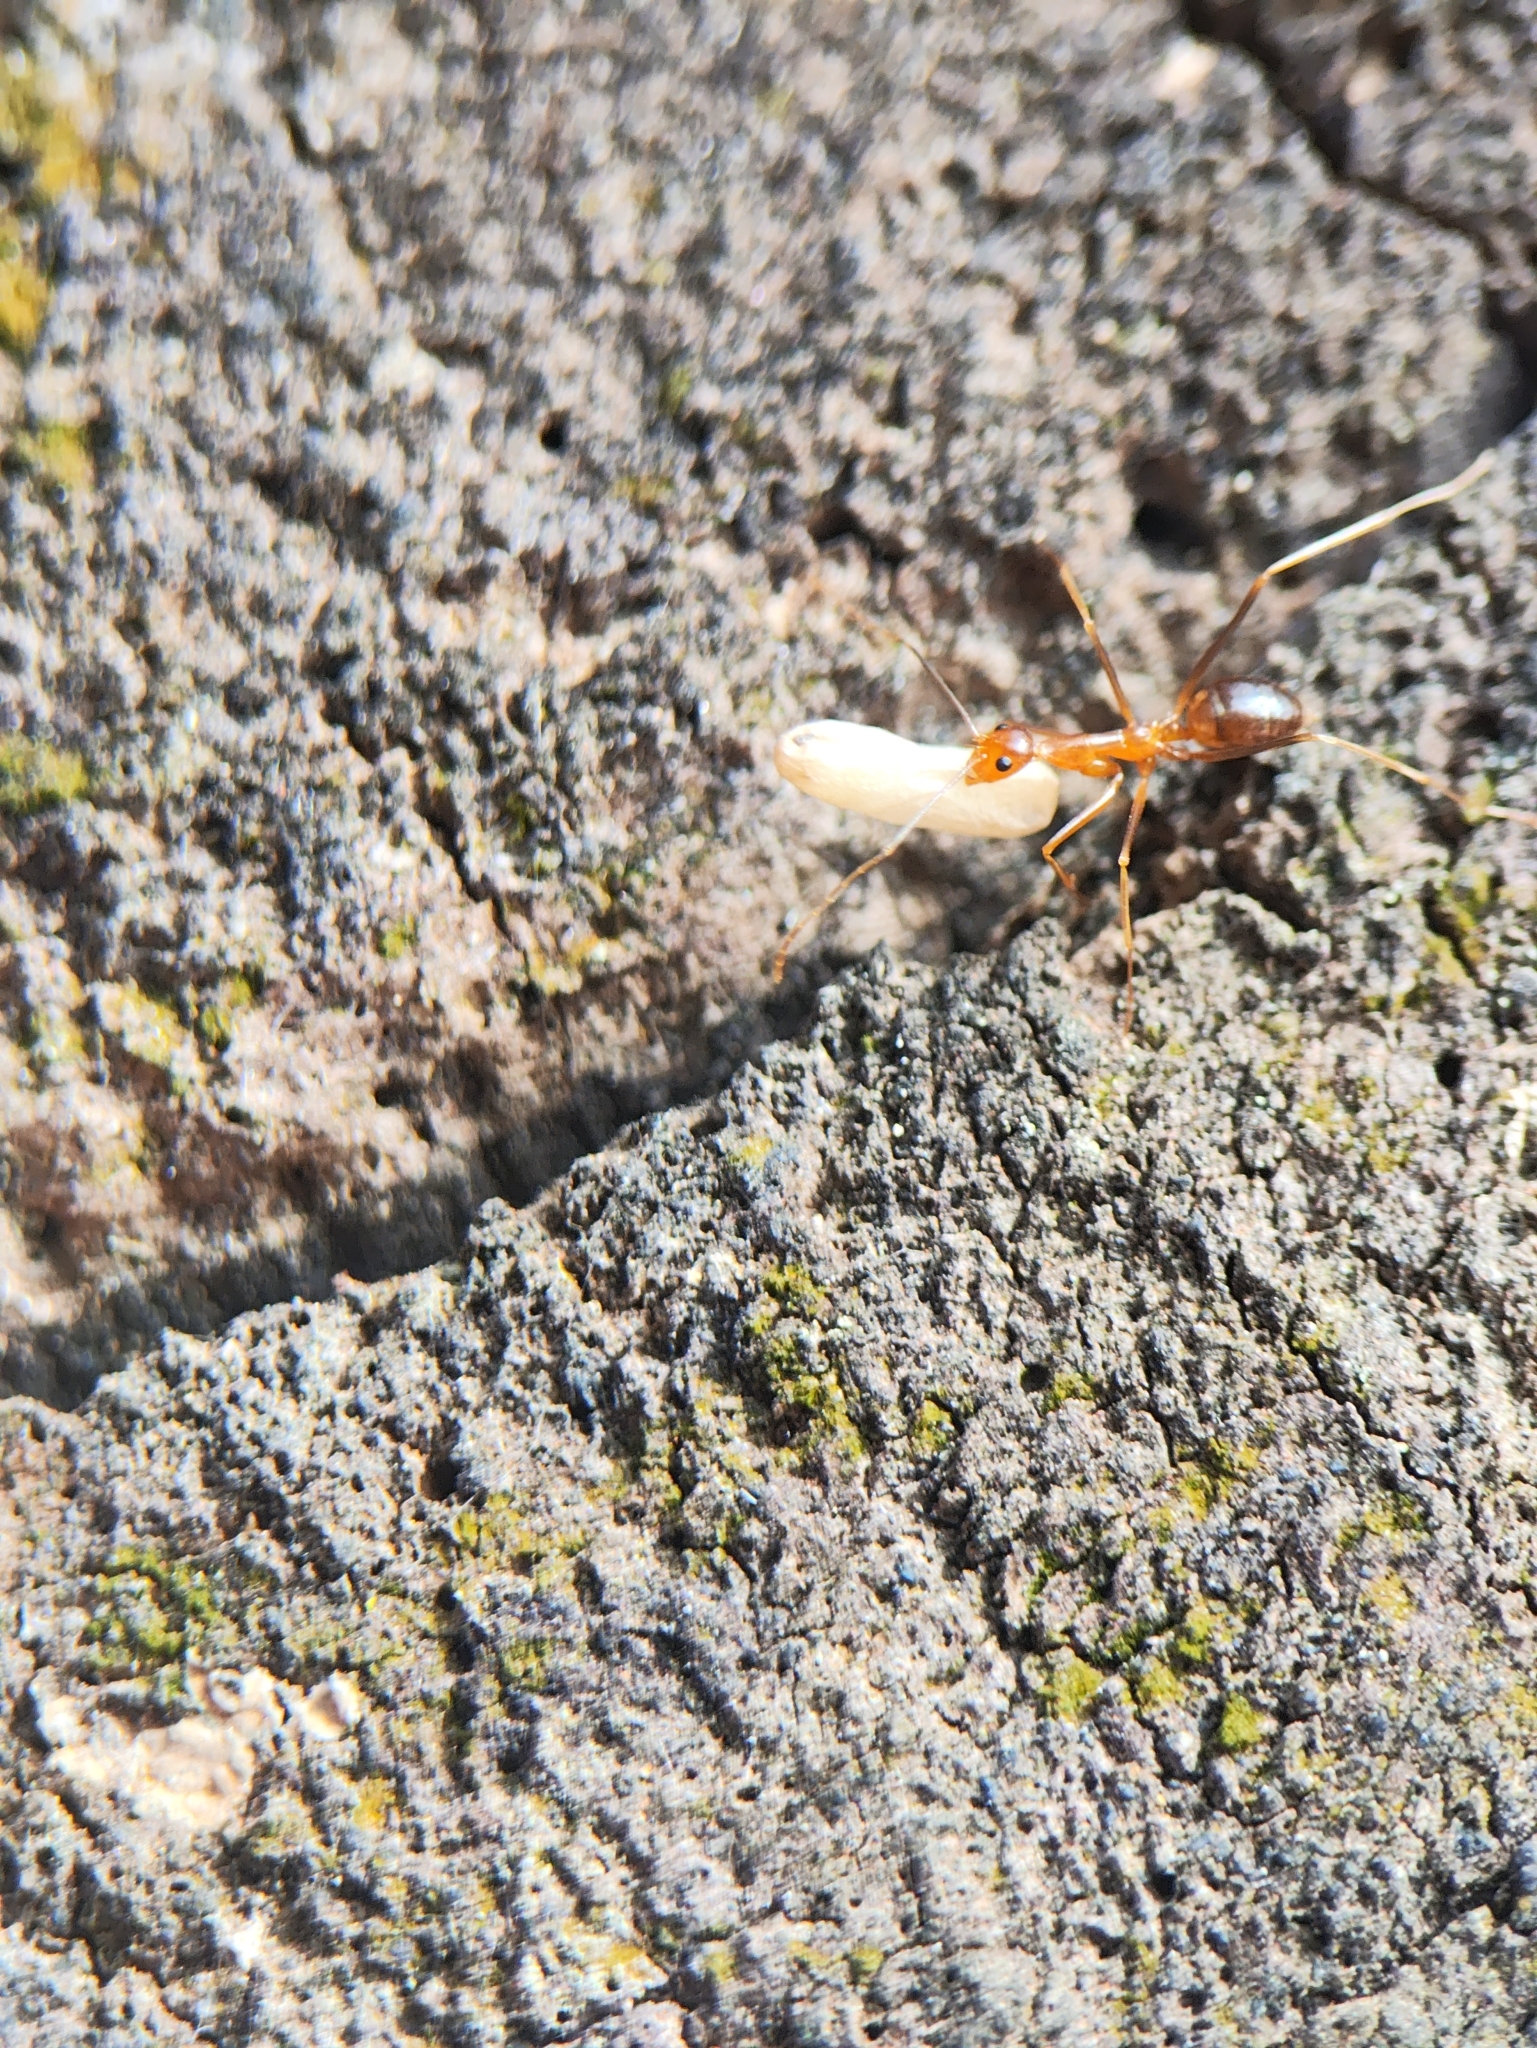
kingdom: Animalia
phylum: Arthropoda
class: Insecta
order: Hymenoptera
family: Formicidae
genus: Anoplolepis
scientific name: Anoplolepis gracilipes
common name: Ant
